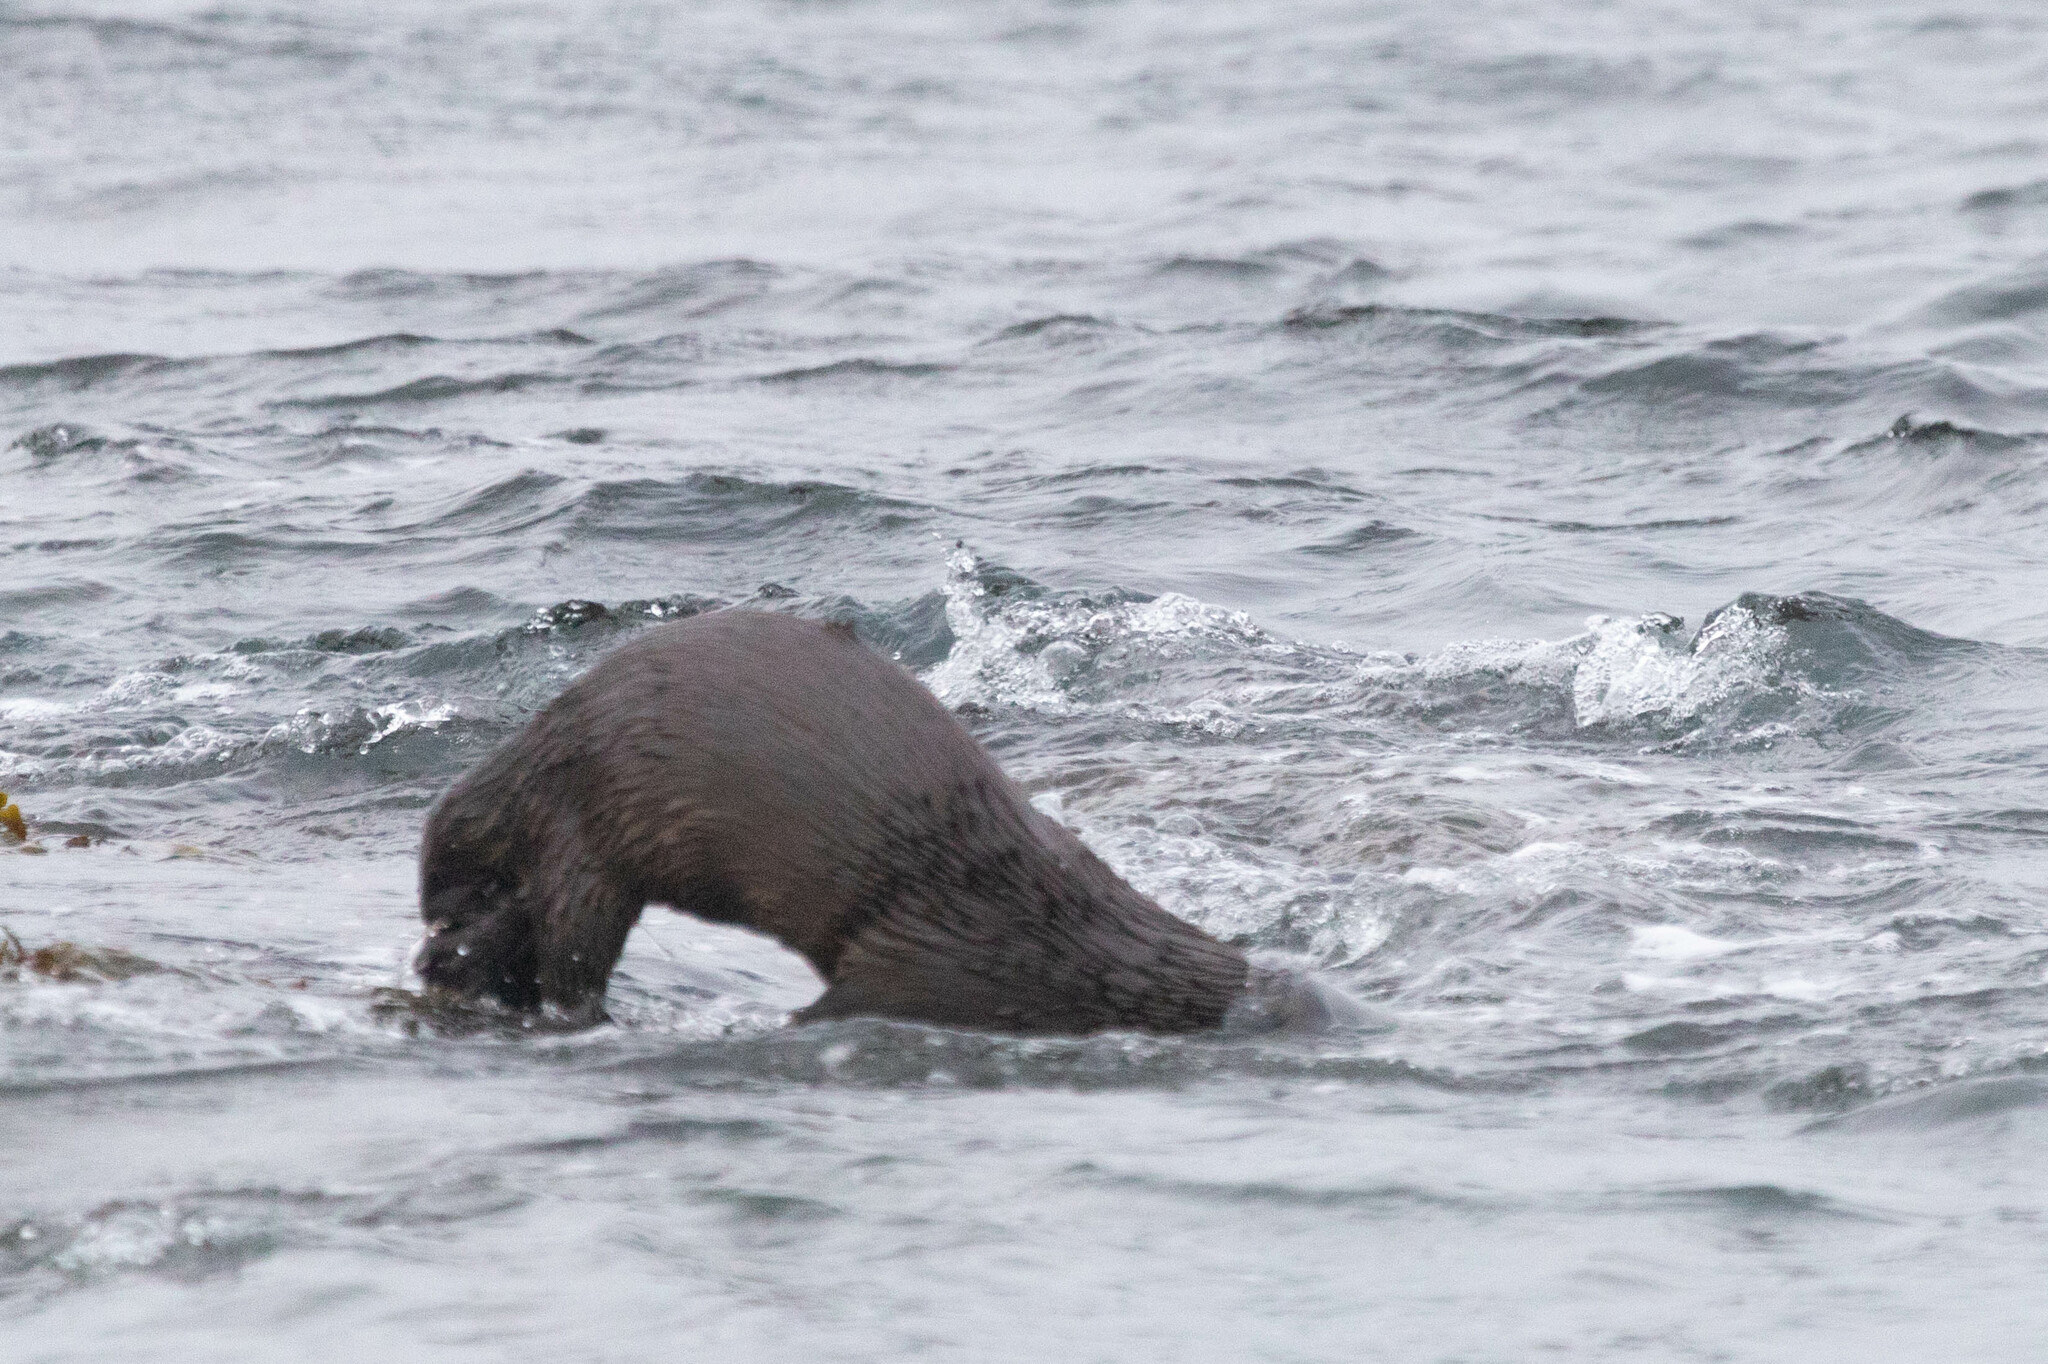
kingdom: Animalia
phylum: Chordata
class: Mammalia
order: Carnivora
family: Mustelidae
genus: Lontra
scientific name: Lontra canadensis
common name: North american river otter
